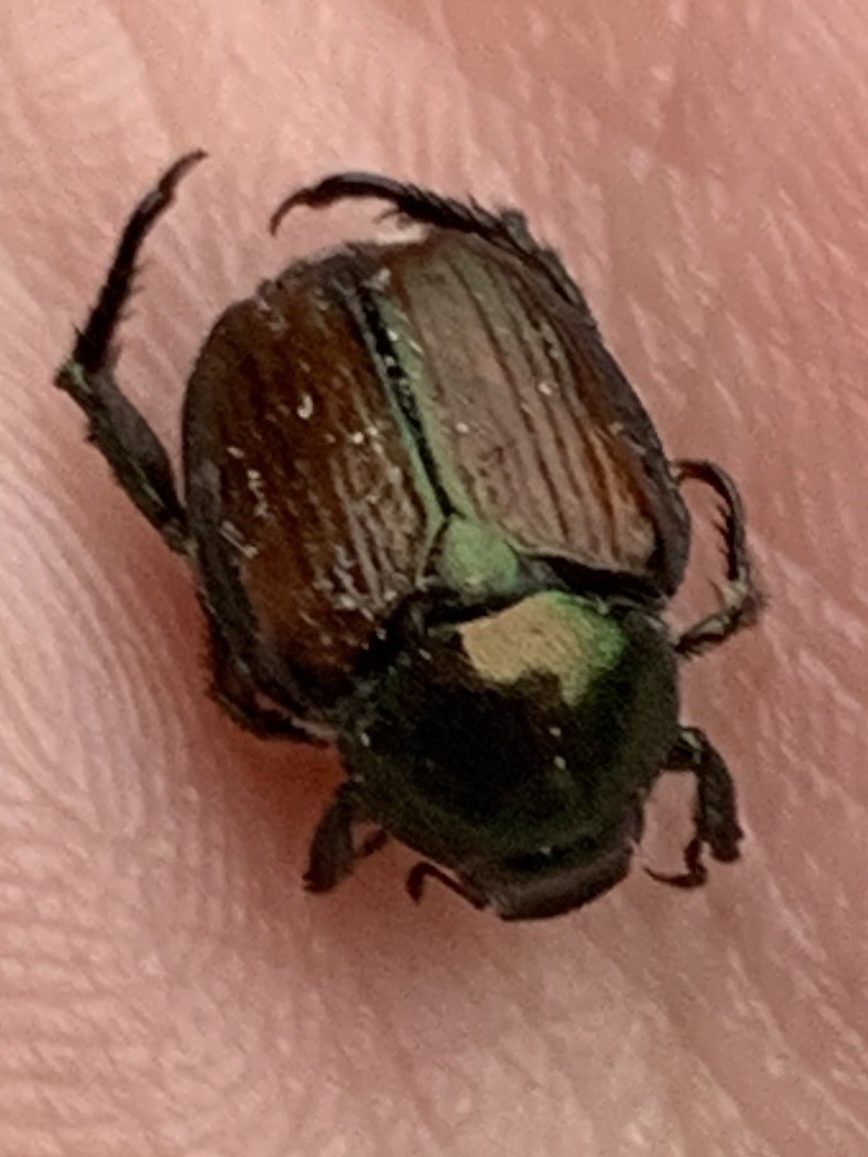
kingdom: Animalia
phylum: Arthropoda
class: Insecta
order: Coleoptera
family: Scarabaeidae
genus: Popillia
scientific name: Popillia japonica
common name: Japanese beetle
